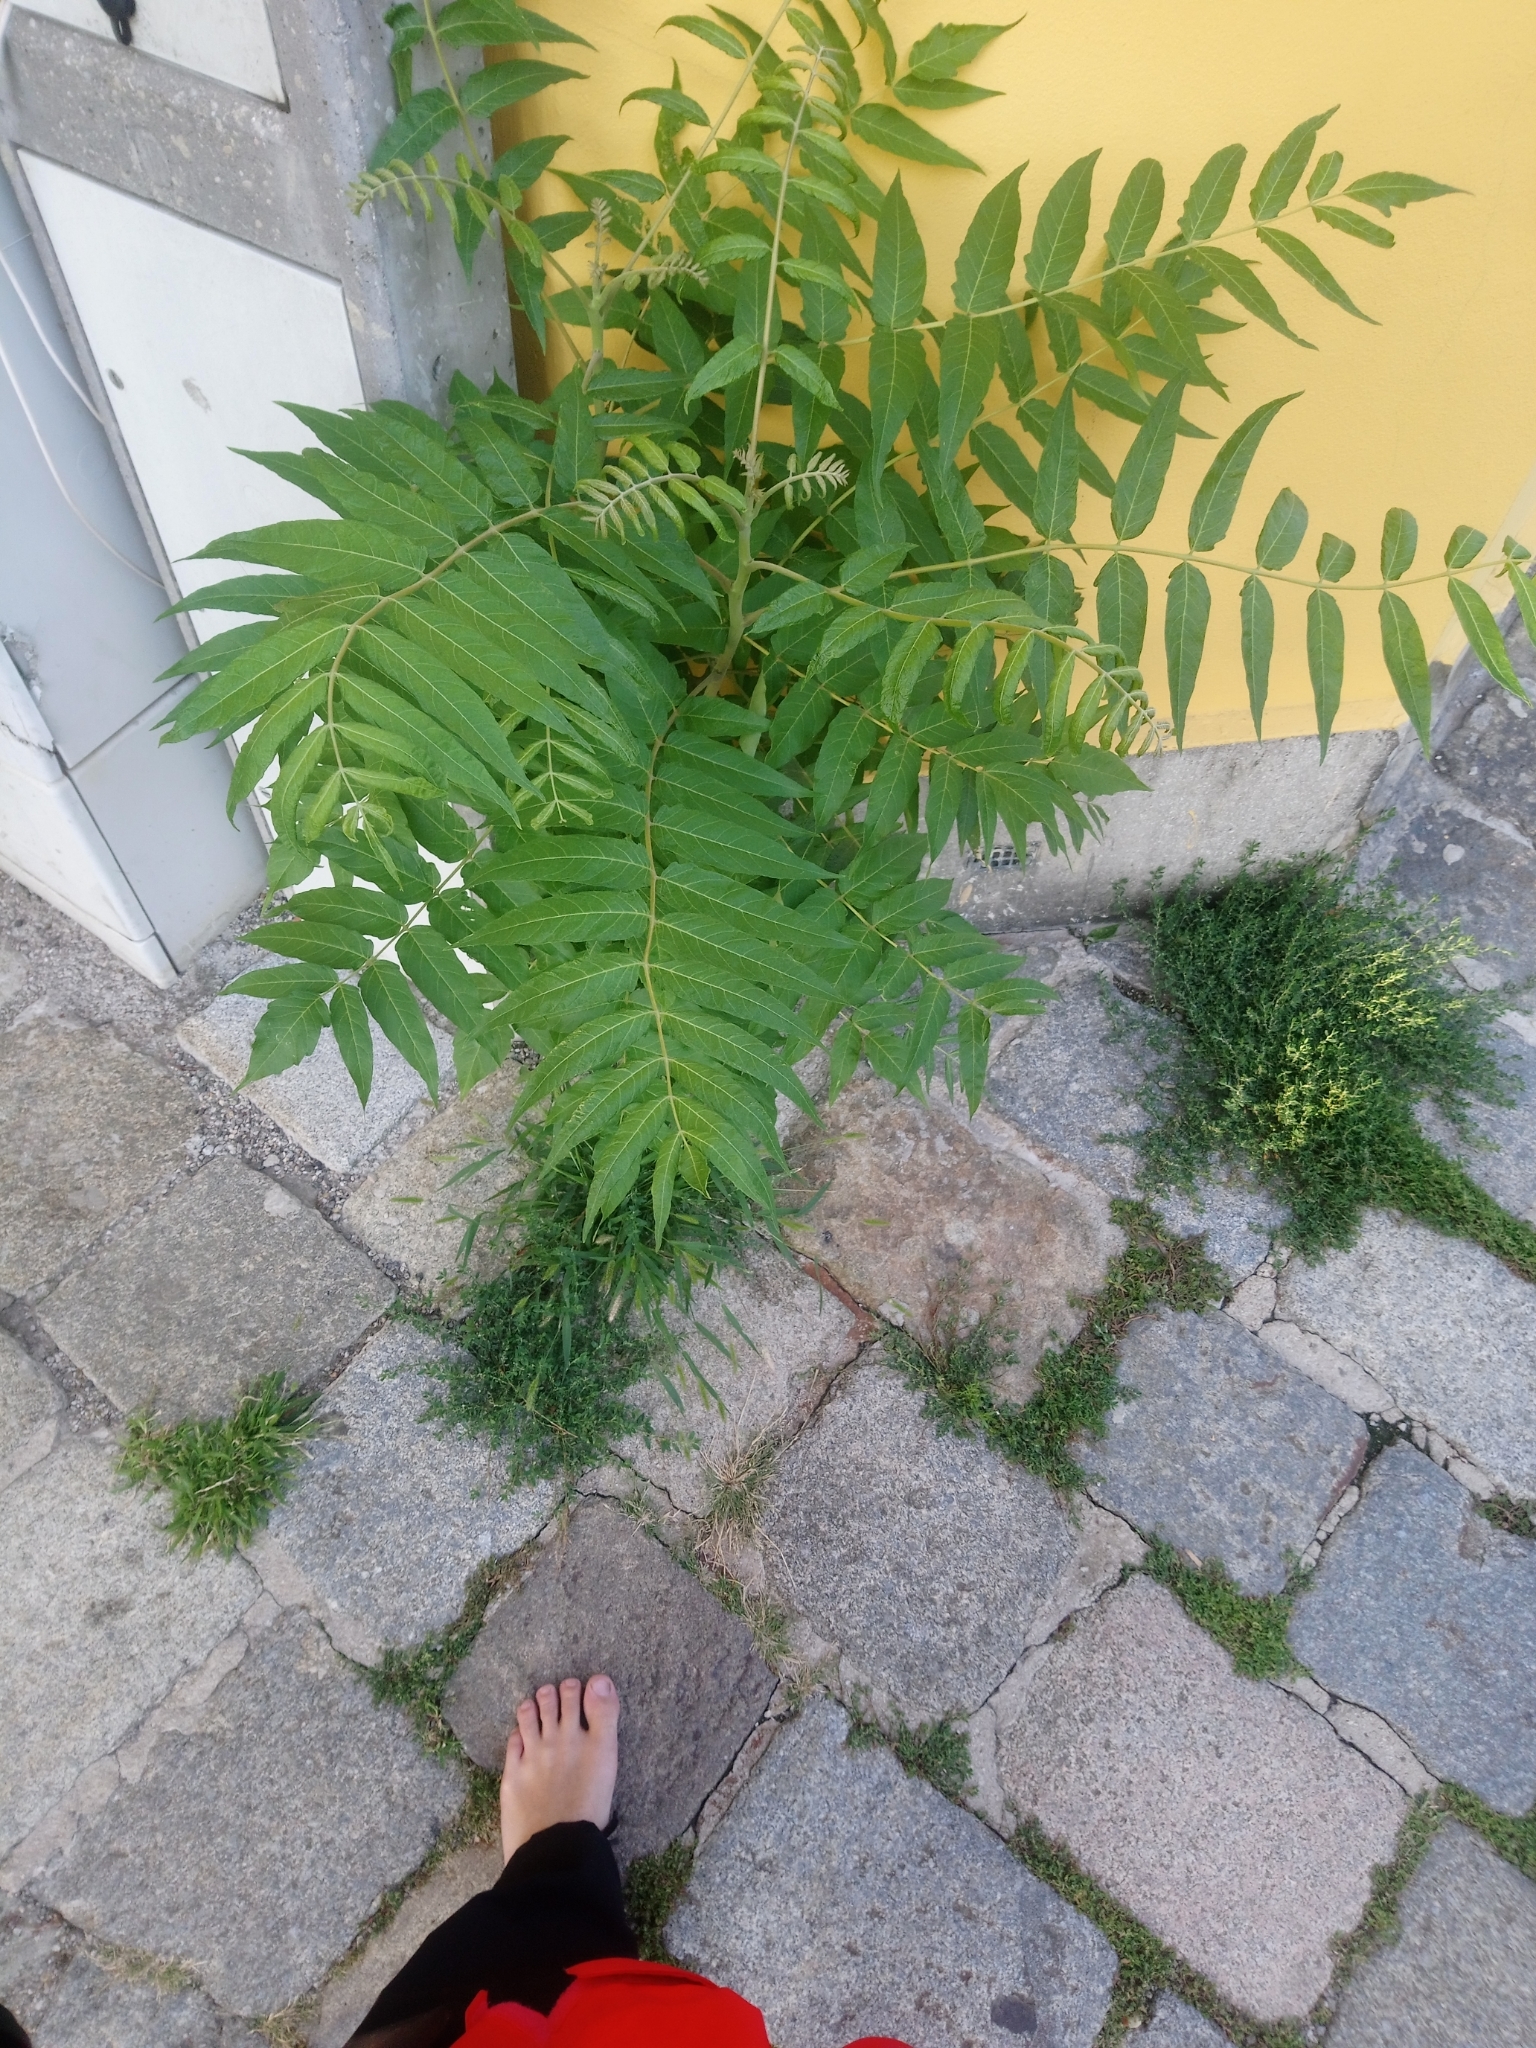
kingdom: Plantae
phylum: Tracheophyta
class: Magnoliopsida
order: Sapindales
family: Simaroubaceae
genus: Ailanthus
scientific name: Ailanthus altissima
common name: Tree-of-heaven
